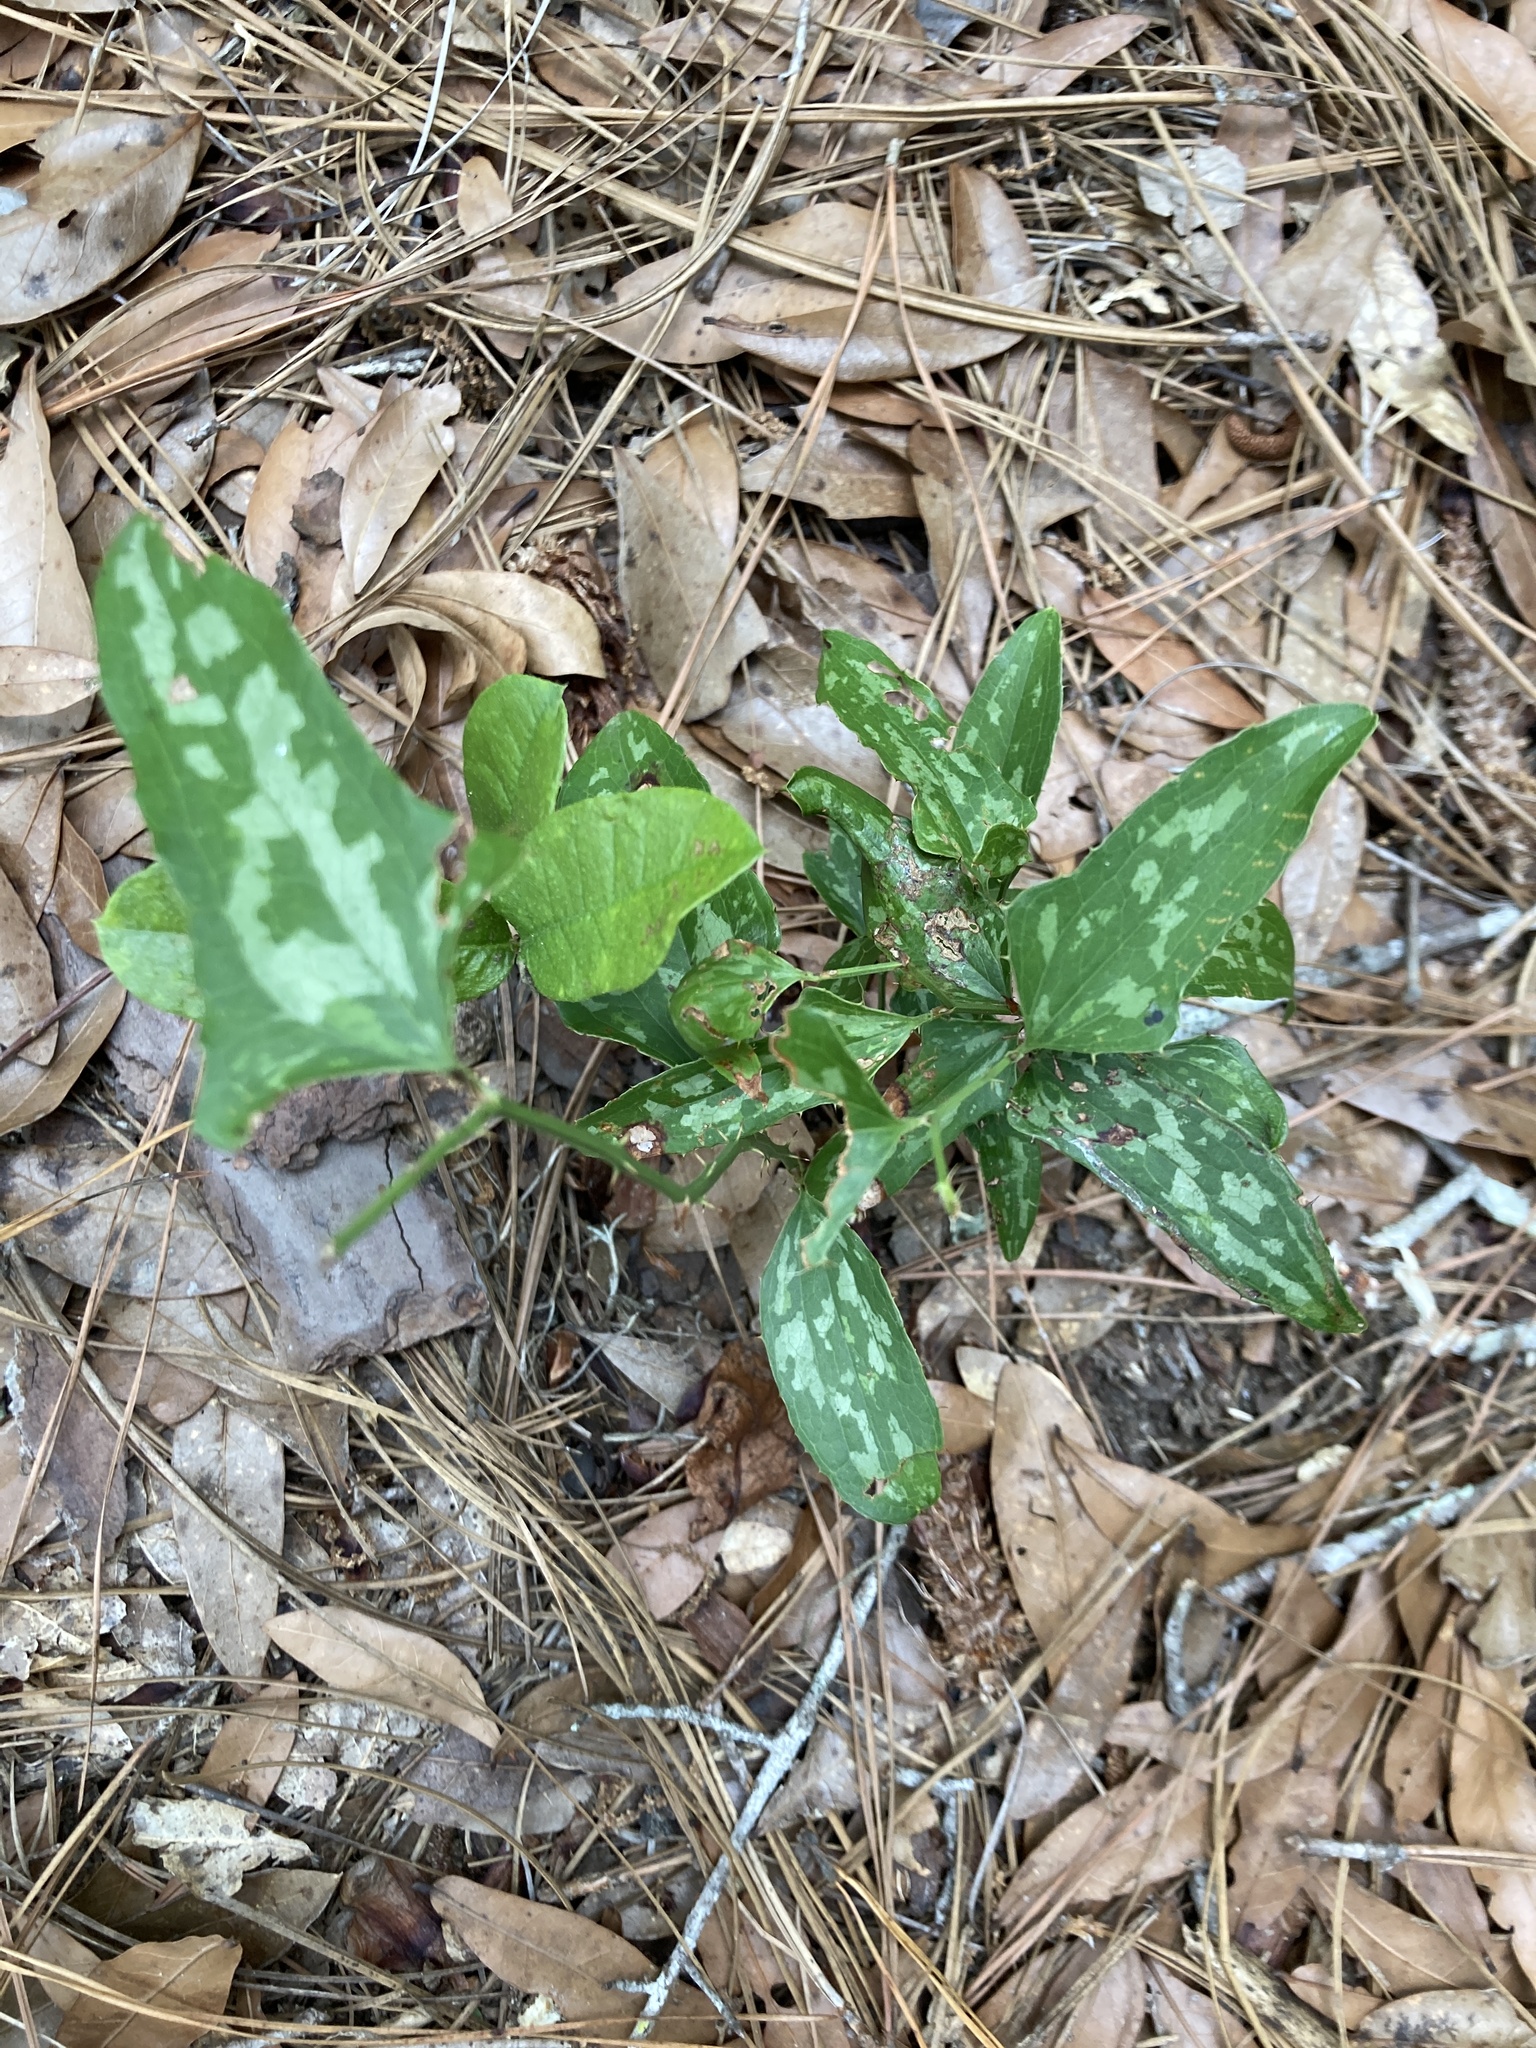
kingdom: Plantae
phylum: Tracheophyta
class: Liliopsida
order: Liliales
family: Smilacaceae
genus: Smilax
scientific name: Smilax bona-nox
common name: Catbrier
